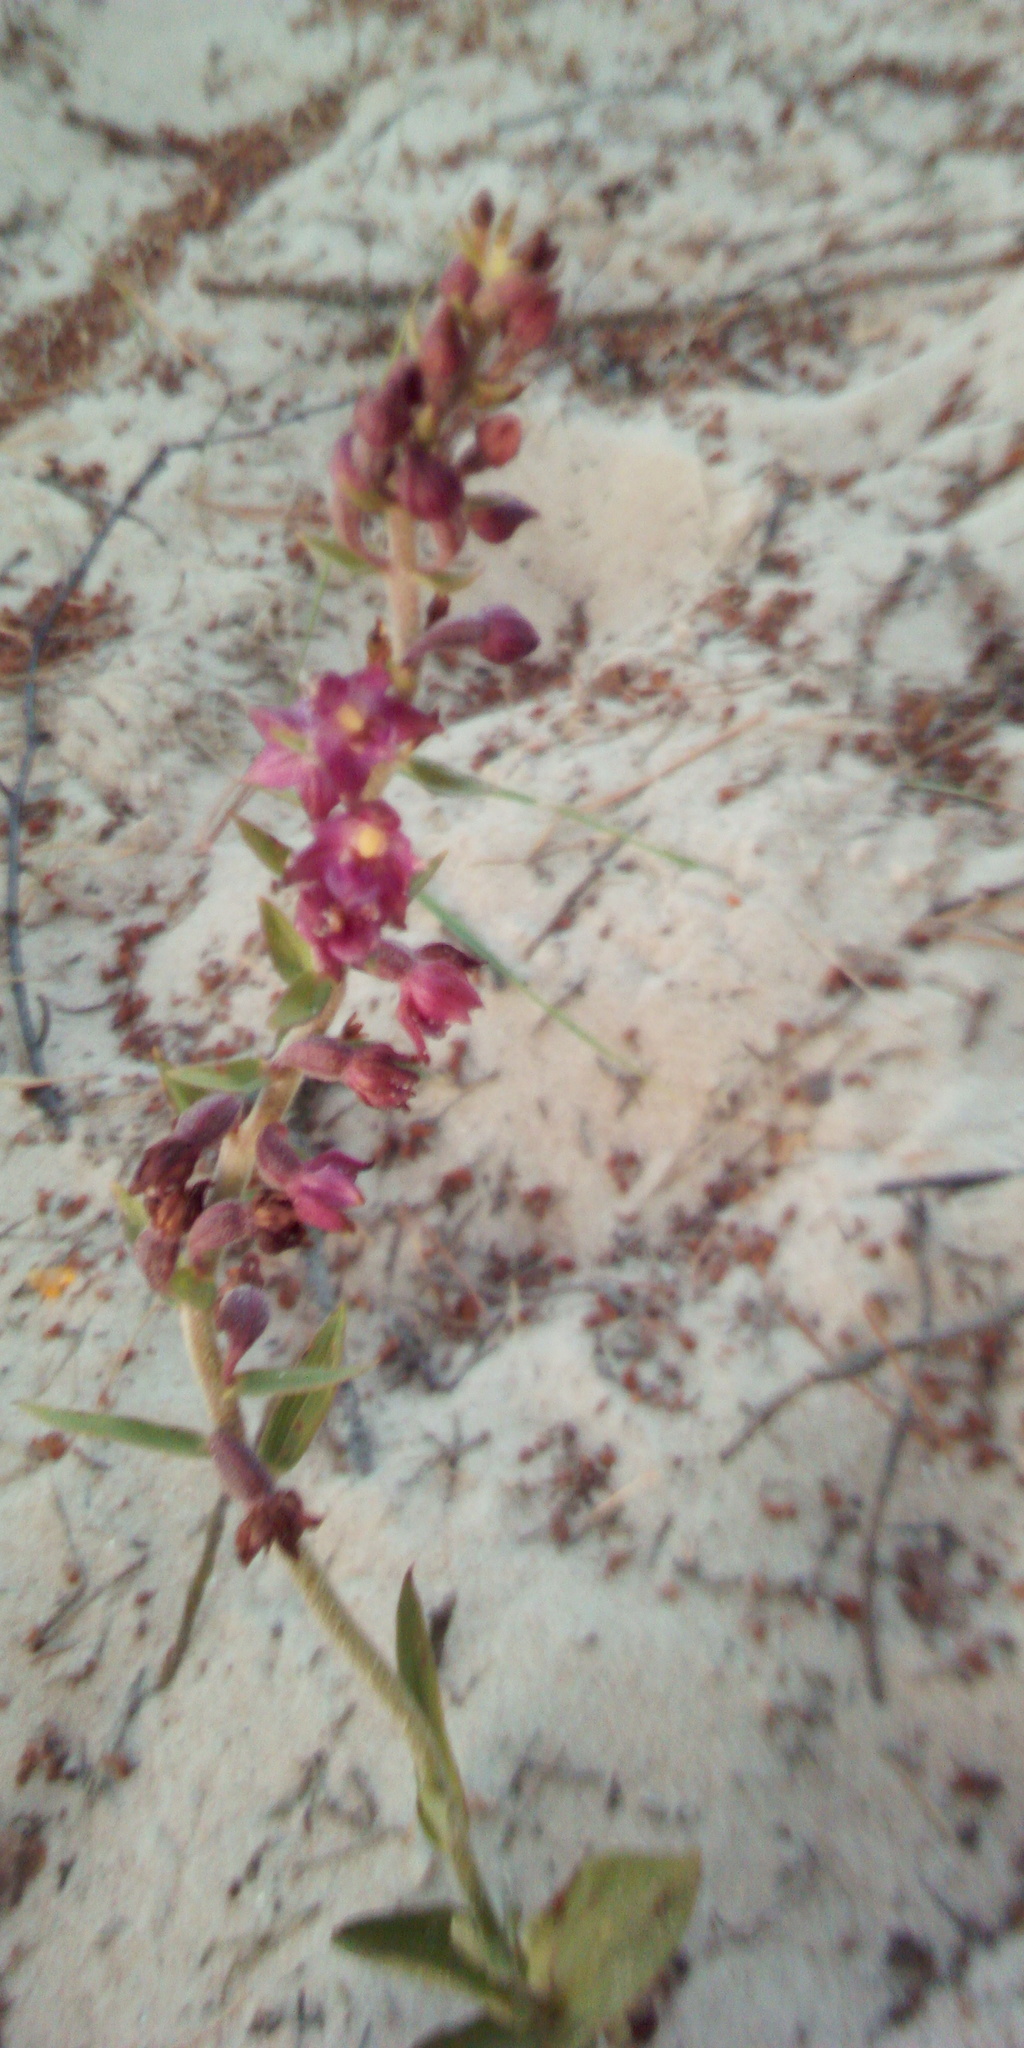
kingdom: Plantae
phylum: Tracheophyta
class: Liliopsida
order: Asparagales
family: Orchidaceae
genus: Epipactis
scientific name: Epipactis atrorubens
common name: Dark-red helleborine
